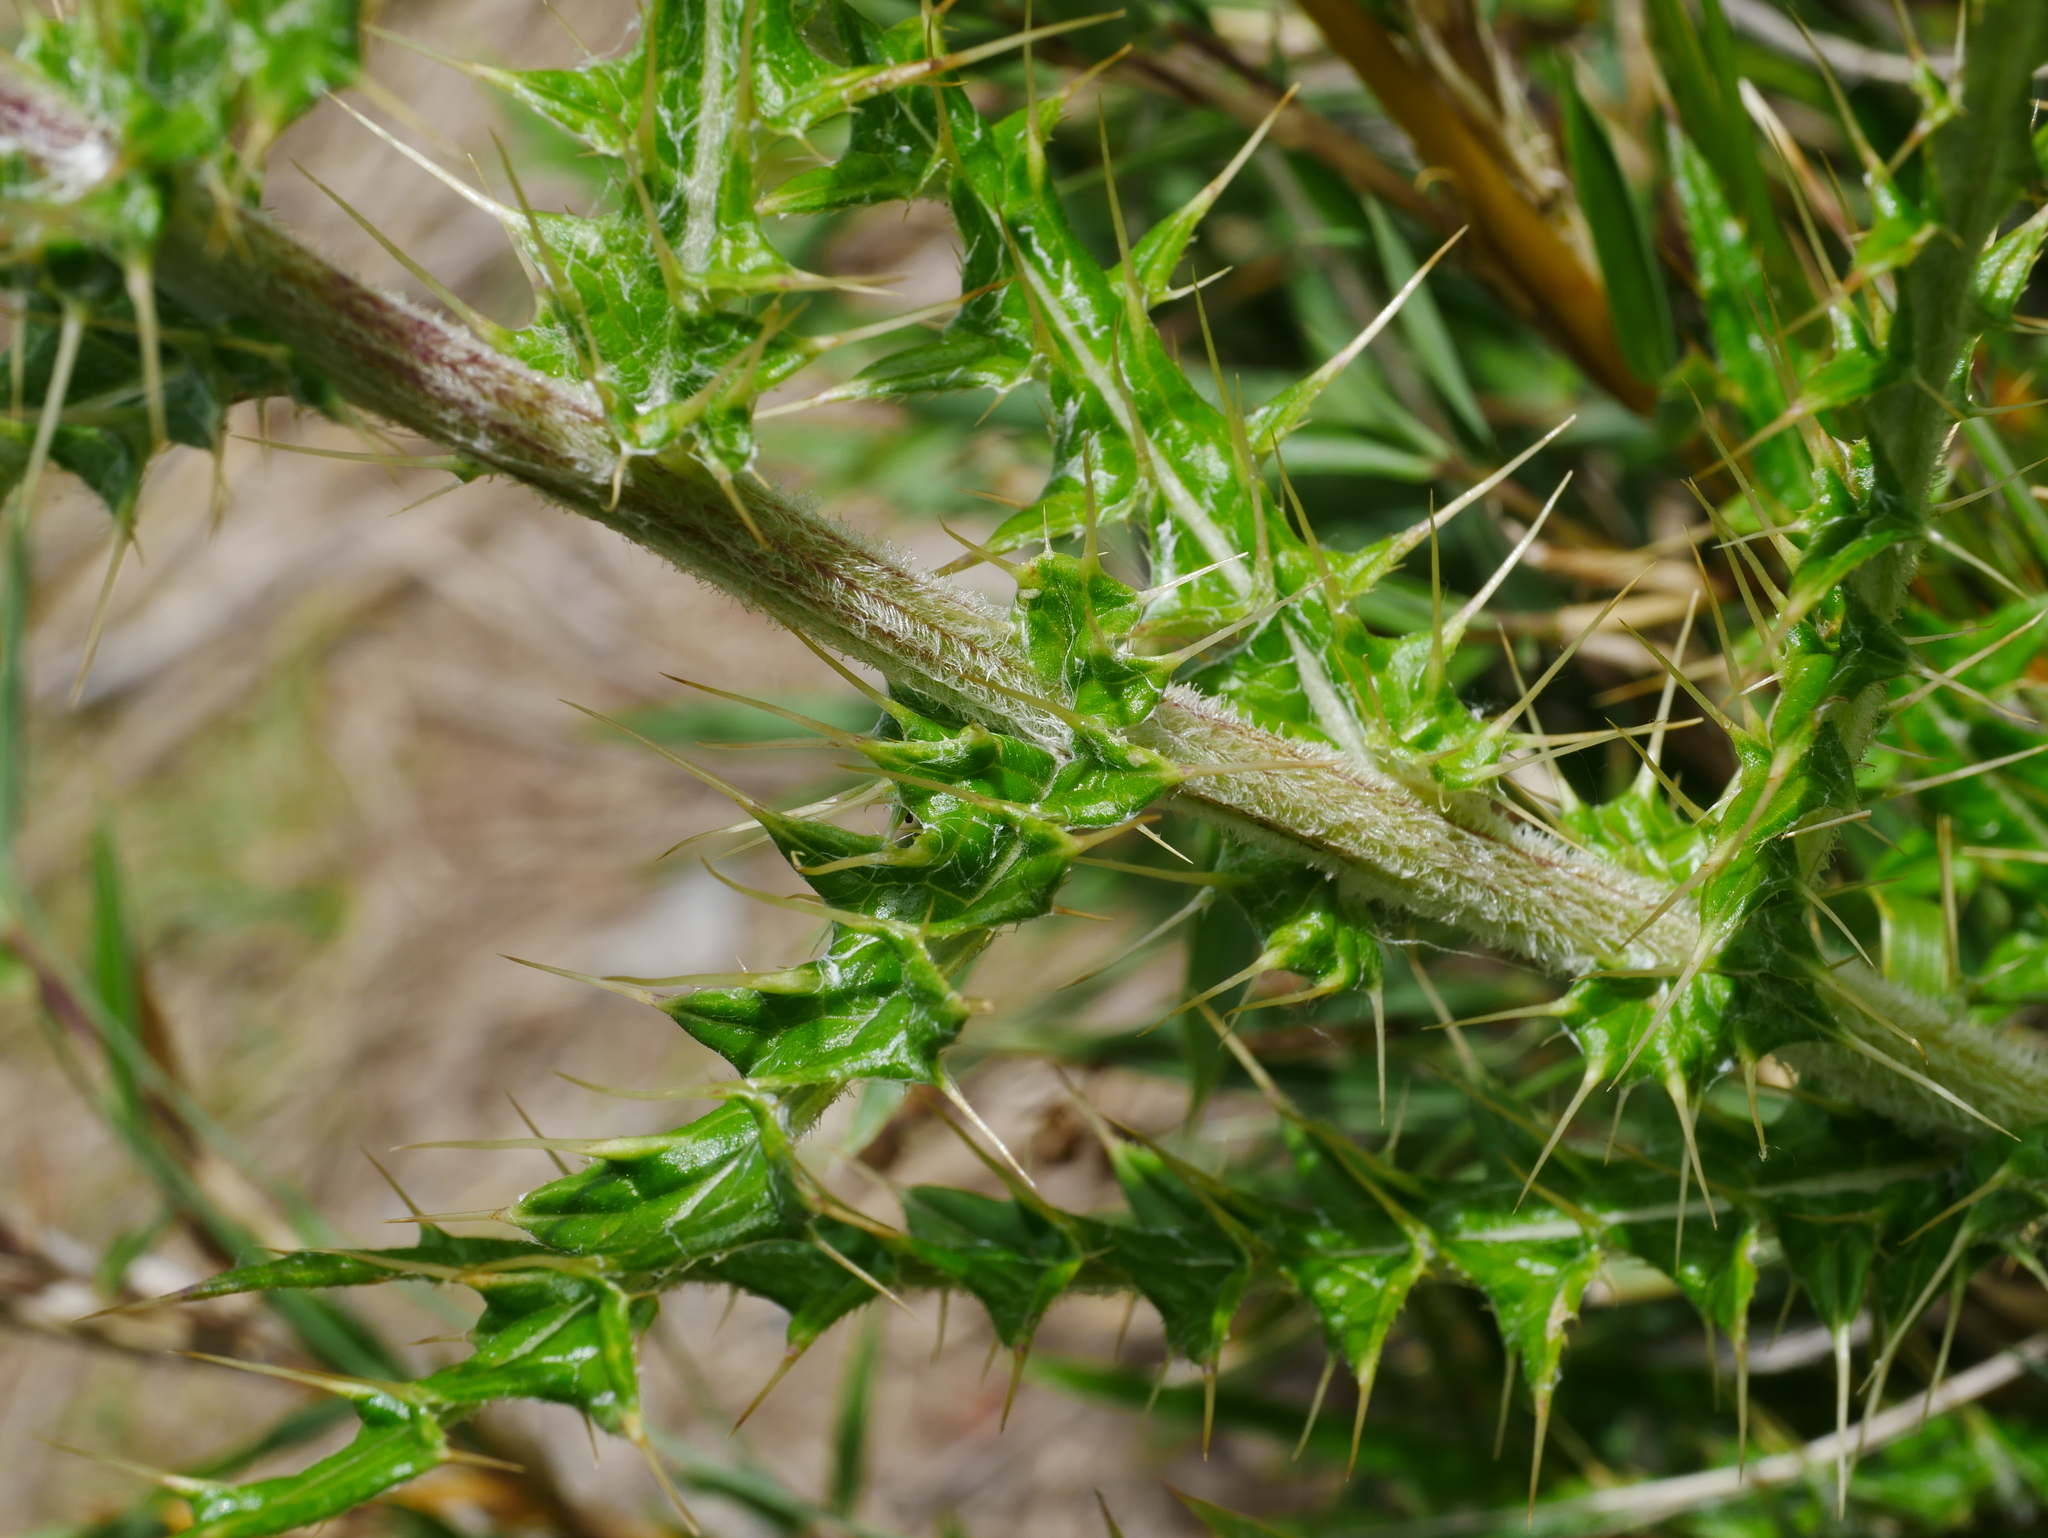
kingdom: Plantae
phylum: Tracheophyta
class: Magnoliopsida
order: Asterales
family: Asteraceae
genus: Cirsium
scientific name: Cirsium hosokawai
